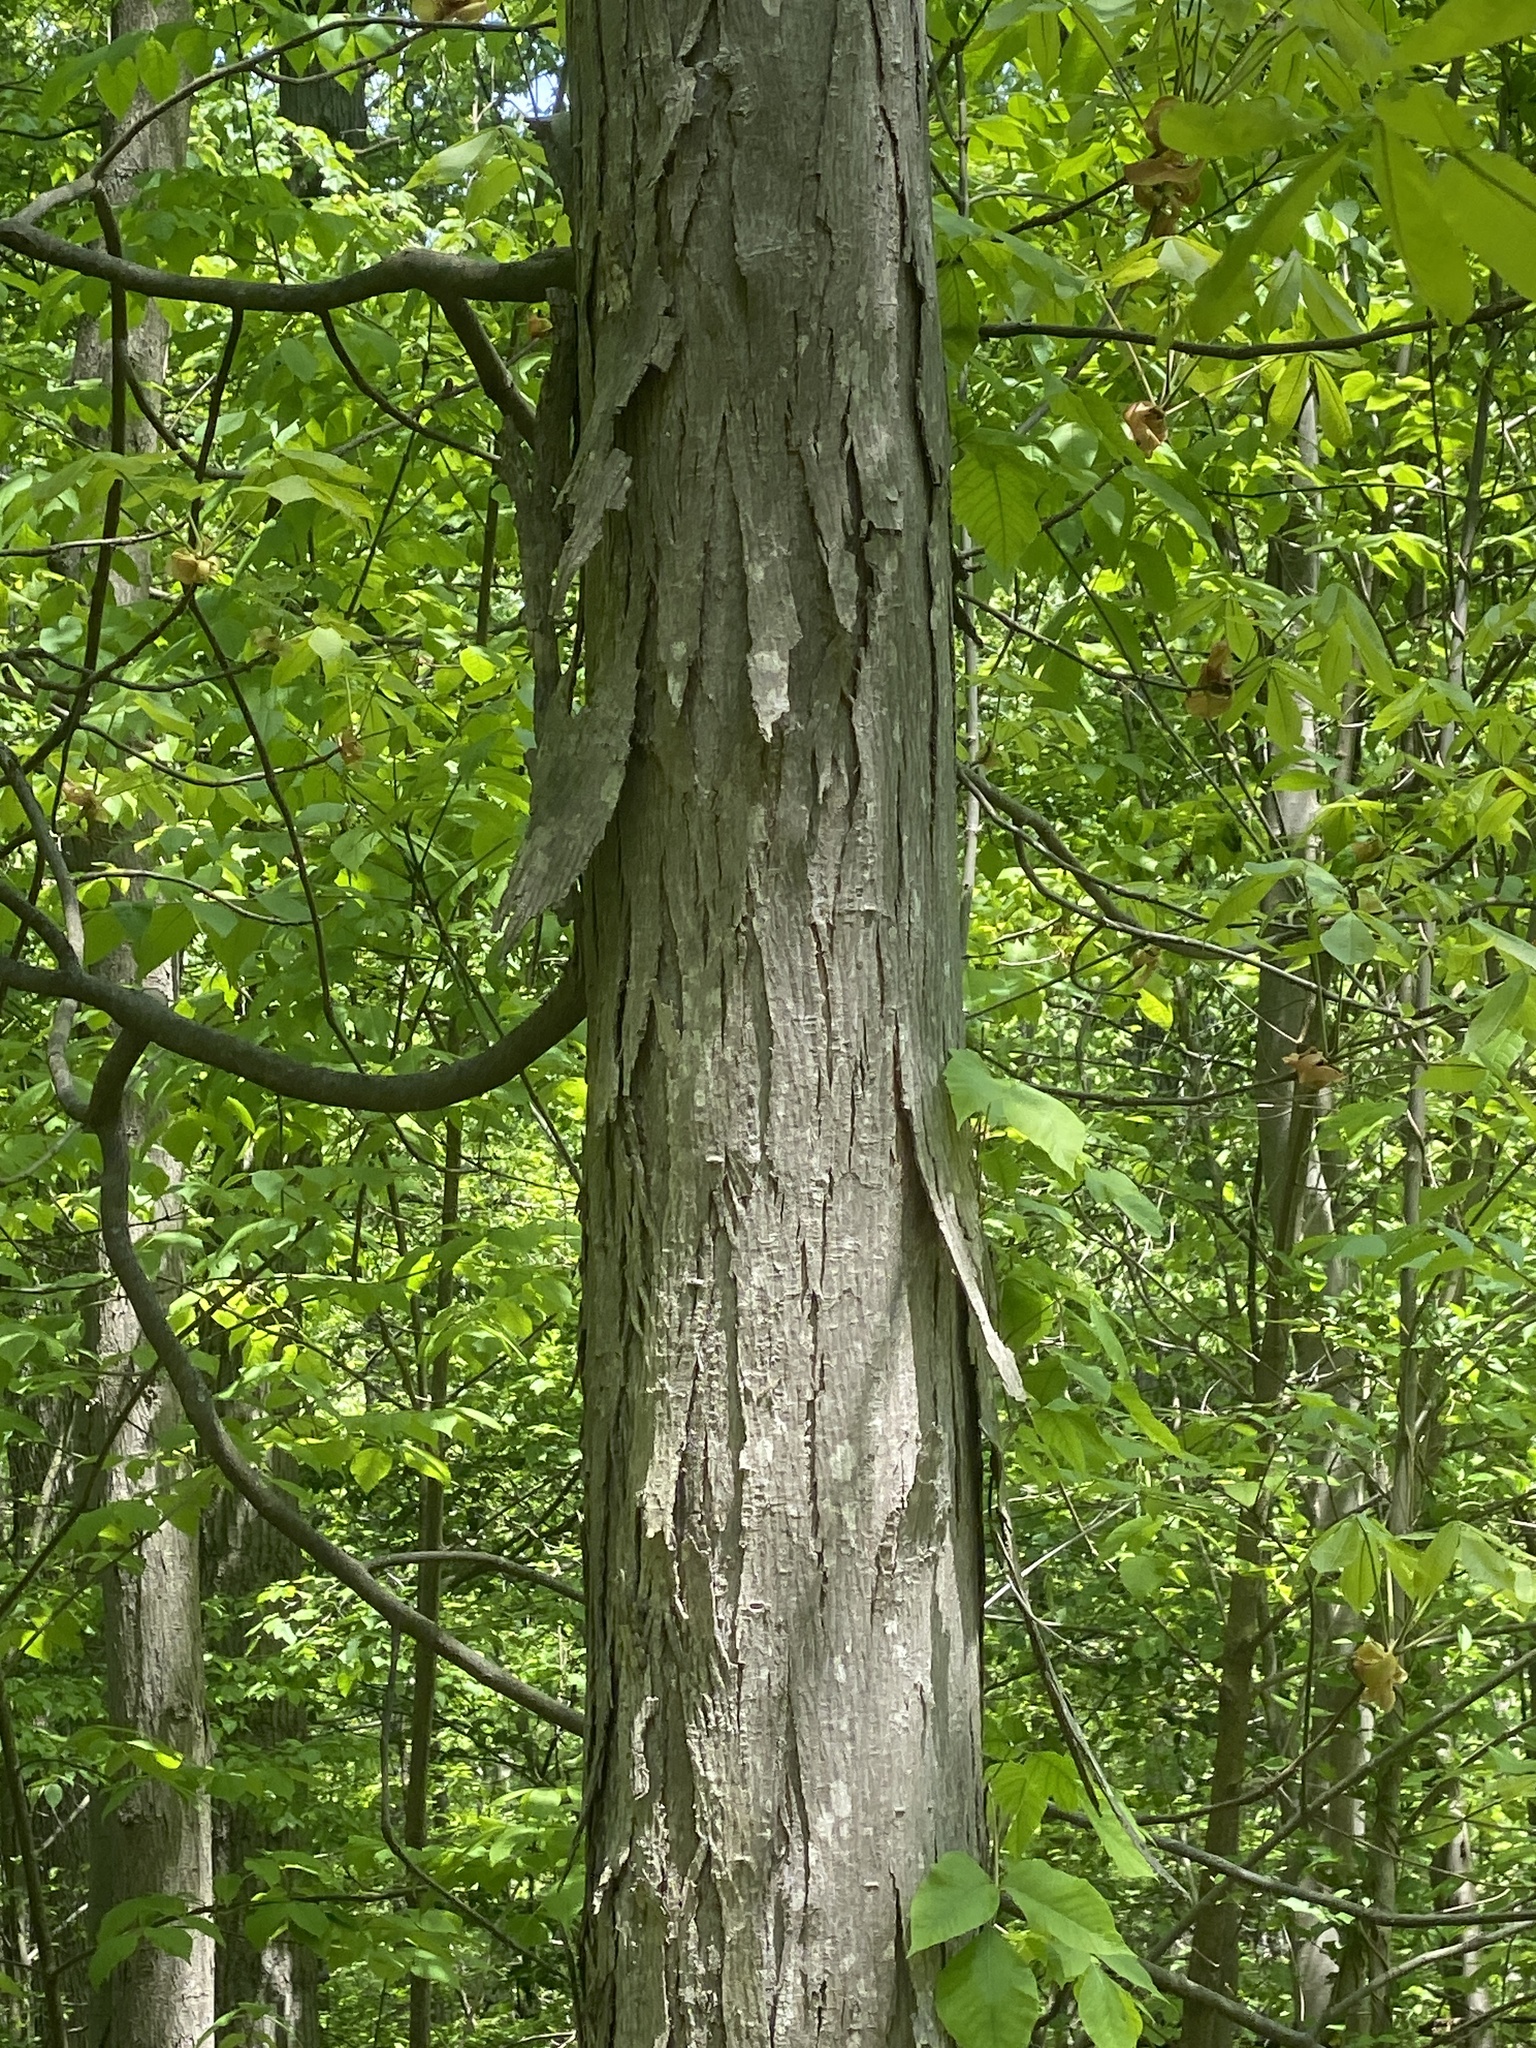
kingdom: Plantae
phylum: Tracheophyta
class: Magnoliopsida
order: Fagales
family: Juglandaceae
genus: Carya
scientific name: Carya ovata
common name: Shagbark hickory
